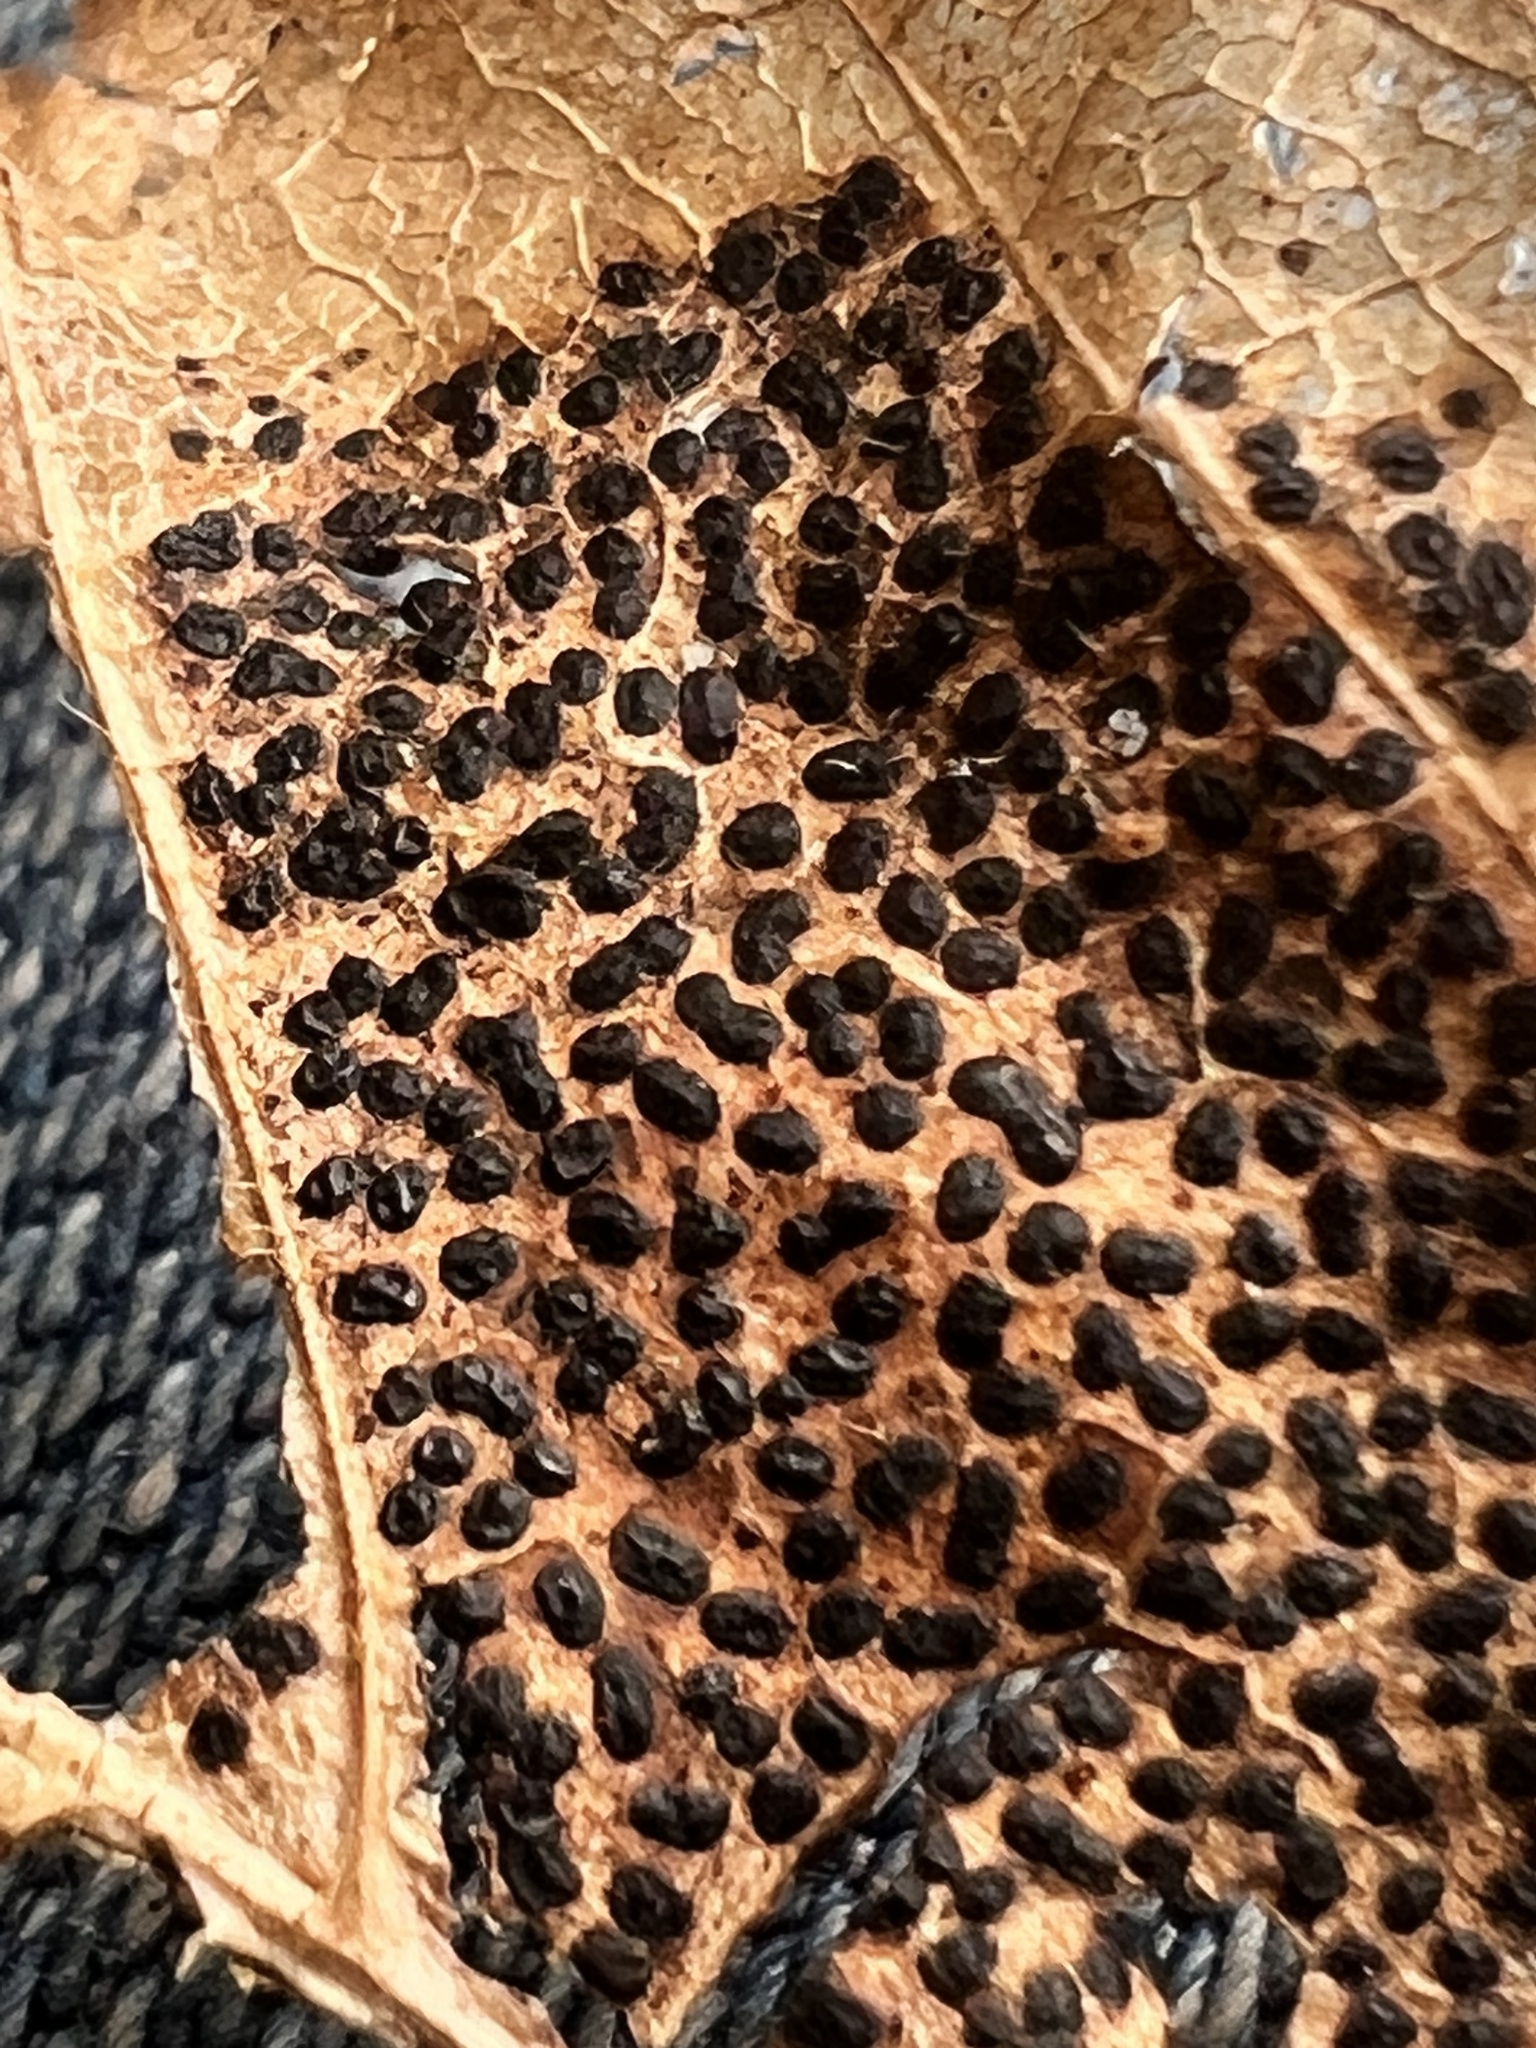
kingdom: Fungi
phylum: Ascomycota
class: Leotiomycetes
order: Rhytismatales
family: Rhytismataceae
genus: Rhytisma
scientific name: Rhytisma punctatum
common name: Speckled tar spot
